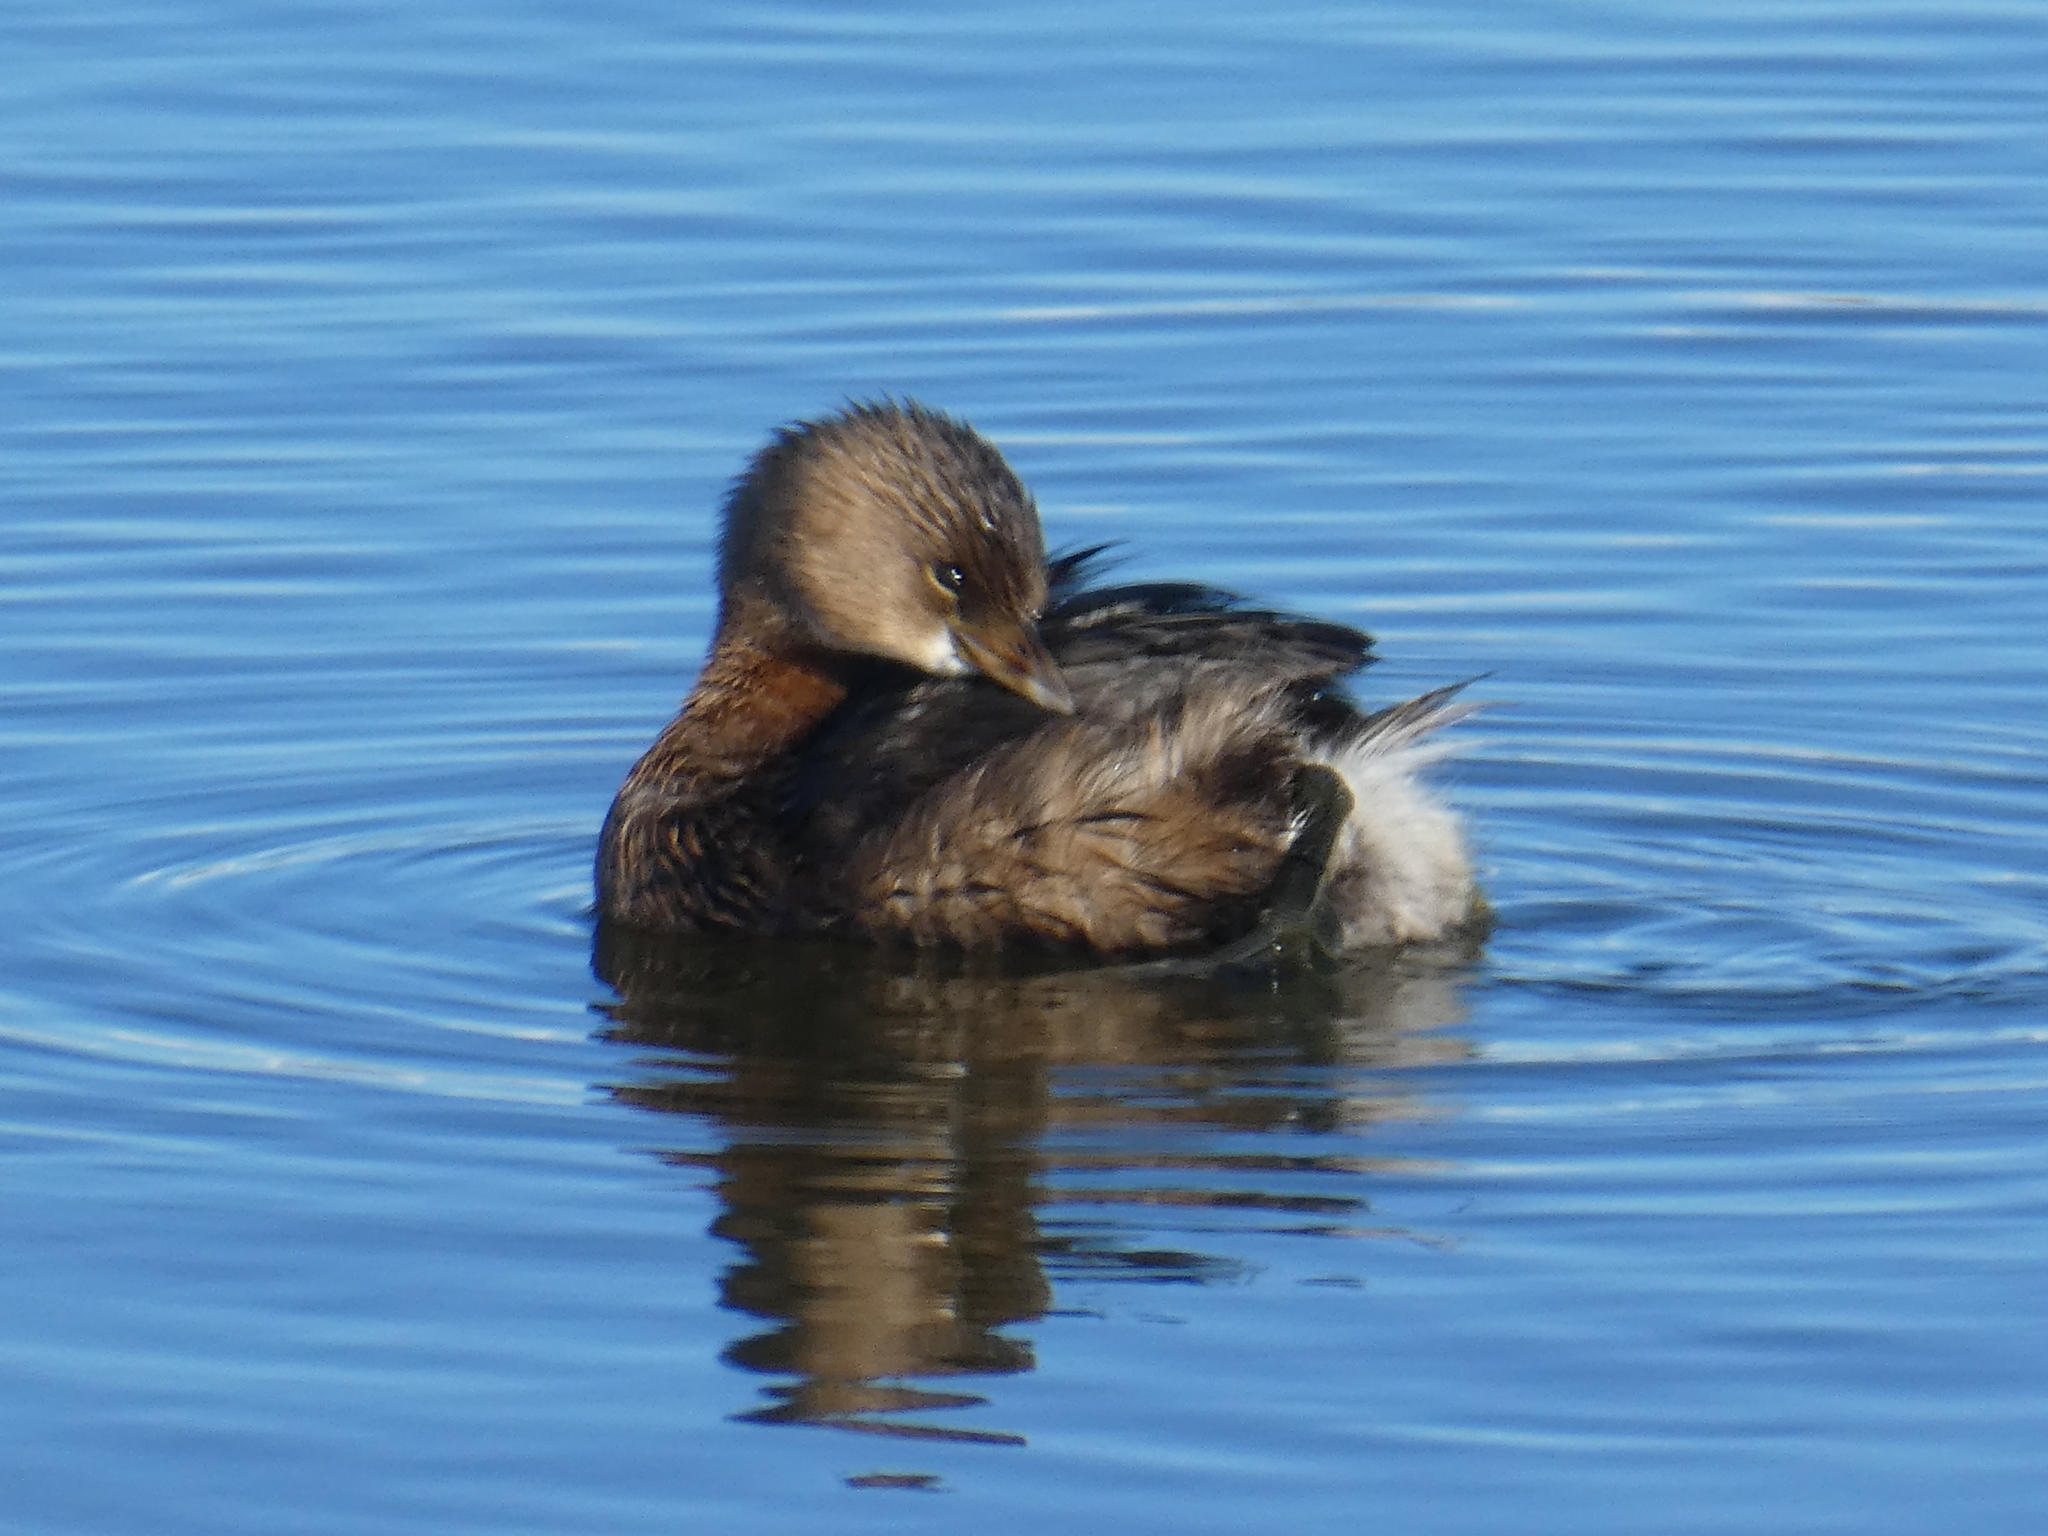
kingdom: Animalia
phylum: Chordata
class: Aves
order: Podicipediformes
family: Podicipedidae
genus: Podilymbus
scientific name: Podilymbus podiceps
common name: Pied-billed grebe
